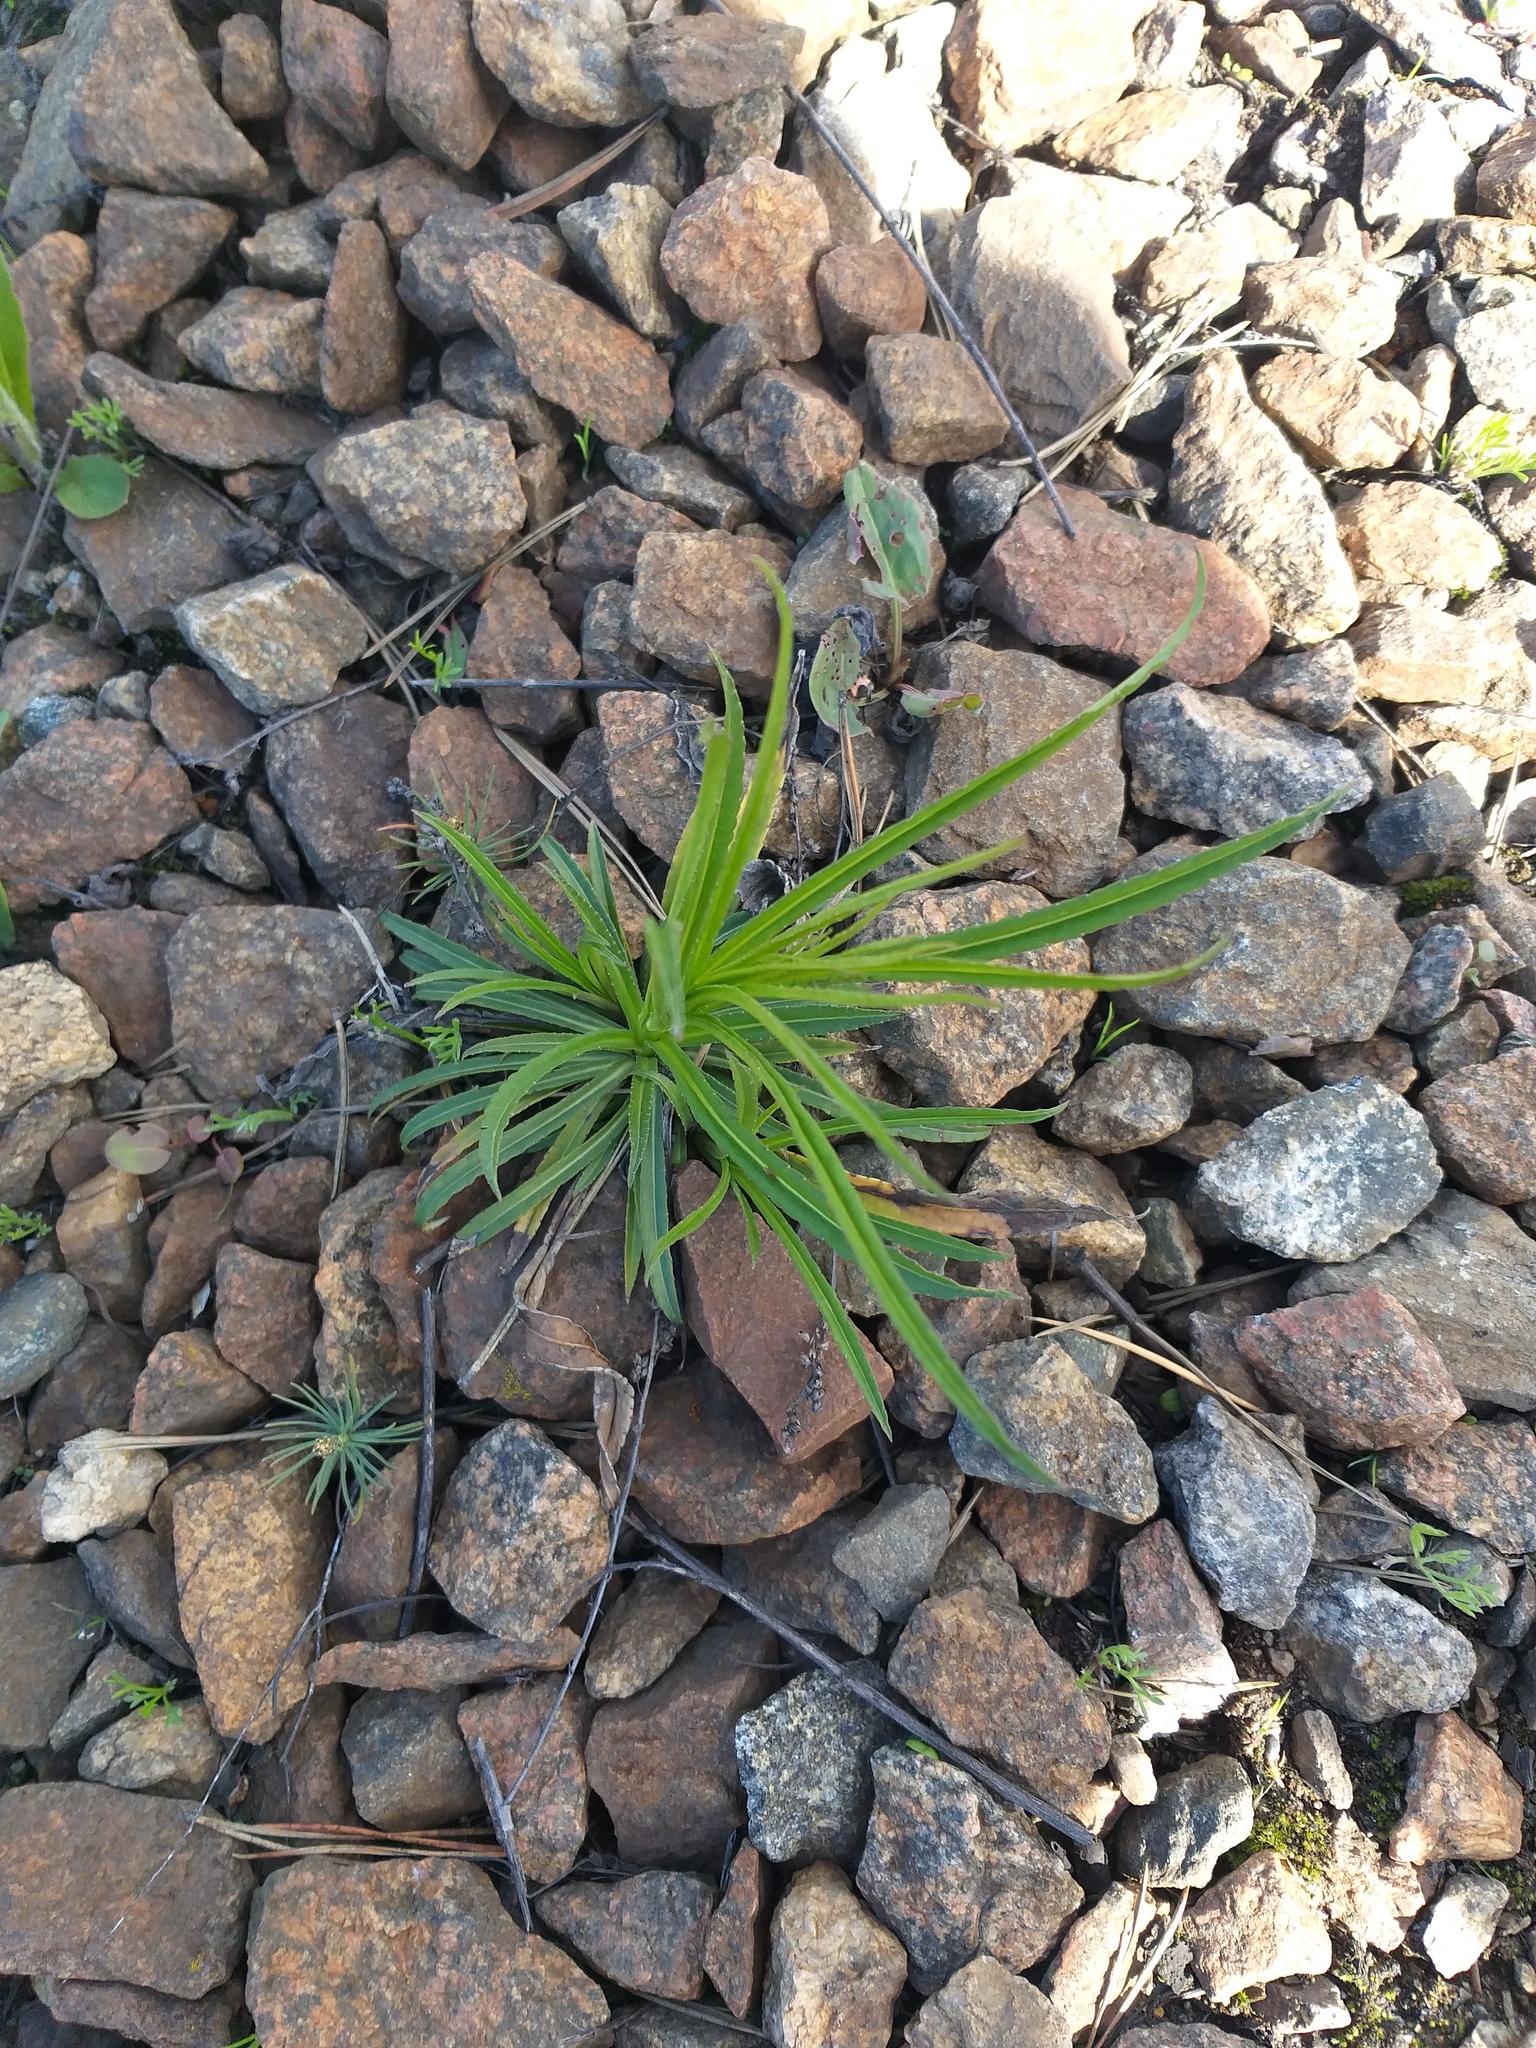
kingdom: Plantae
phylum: Tracheophyta
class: Magnoliopsida
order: Asterales
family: Campanulaceae
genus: Campanula
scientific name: Campanula persicifolia
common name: Peach-leaved bellflower
